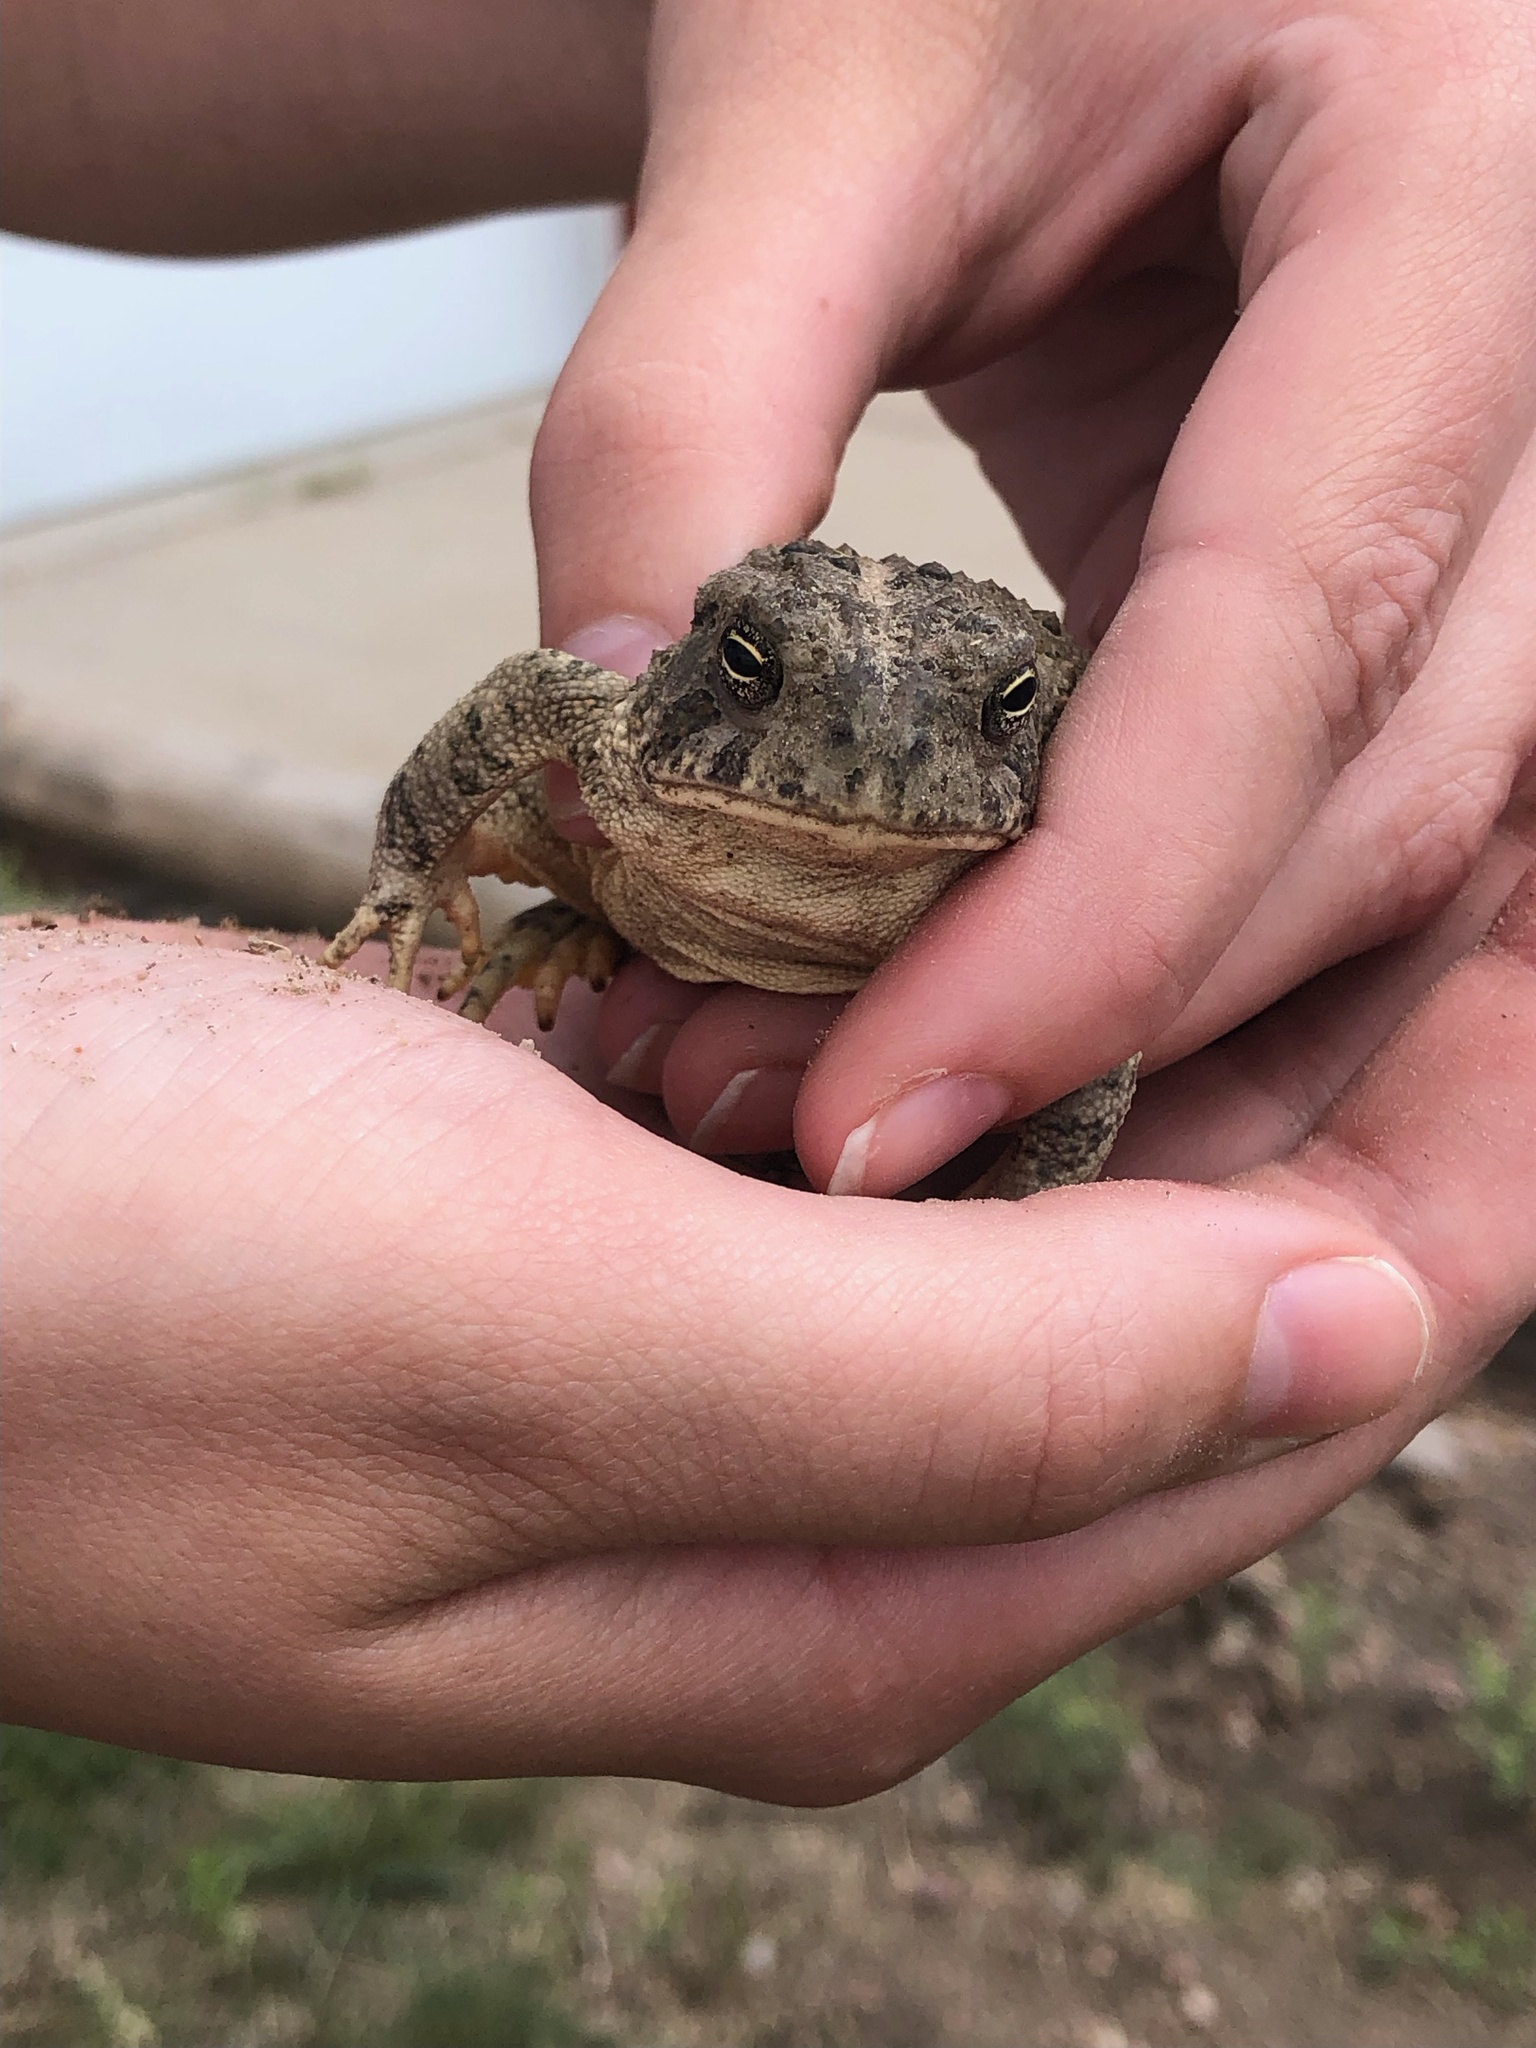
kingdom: Animalia
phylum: Chordata
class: Amphibia
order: Anura
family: Bufonidae
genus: Anaxyrus
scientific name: Anaxyrus woodhousii
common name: Woodhouse's toad
